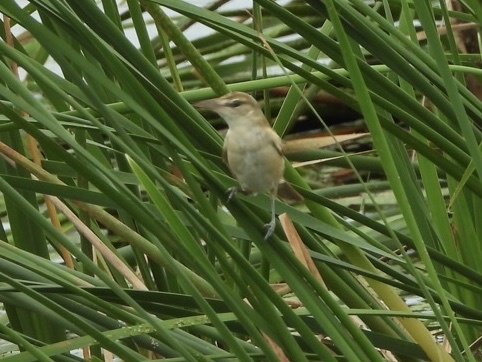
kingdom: Animalia
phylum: Chordata
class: Aves
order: Passeriformes
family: Acrocephalidae
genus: Acrocephalus
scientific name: Acrocephalus orientalis
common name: Oriental reed warbler
